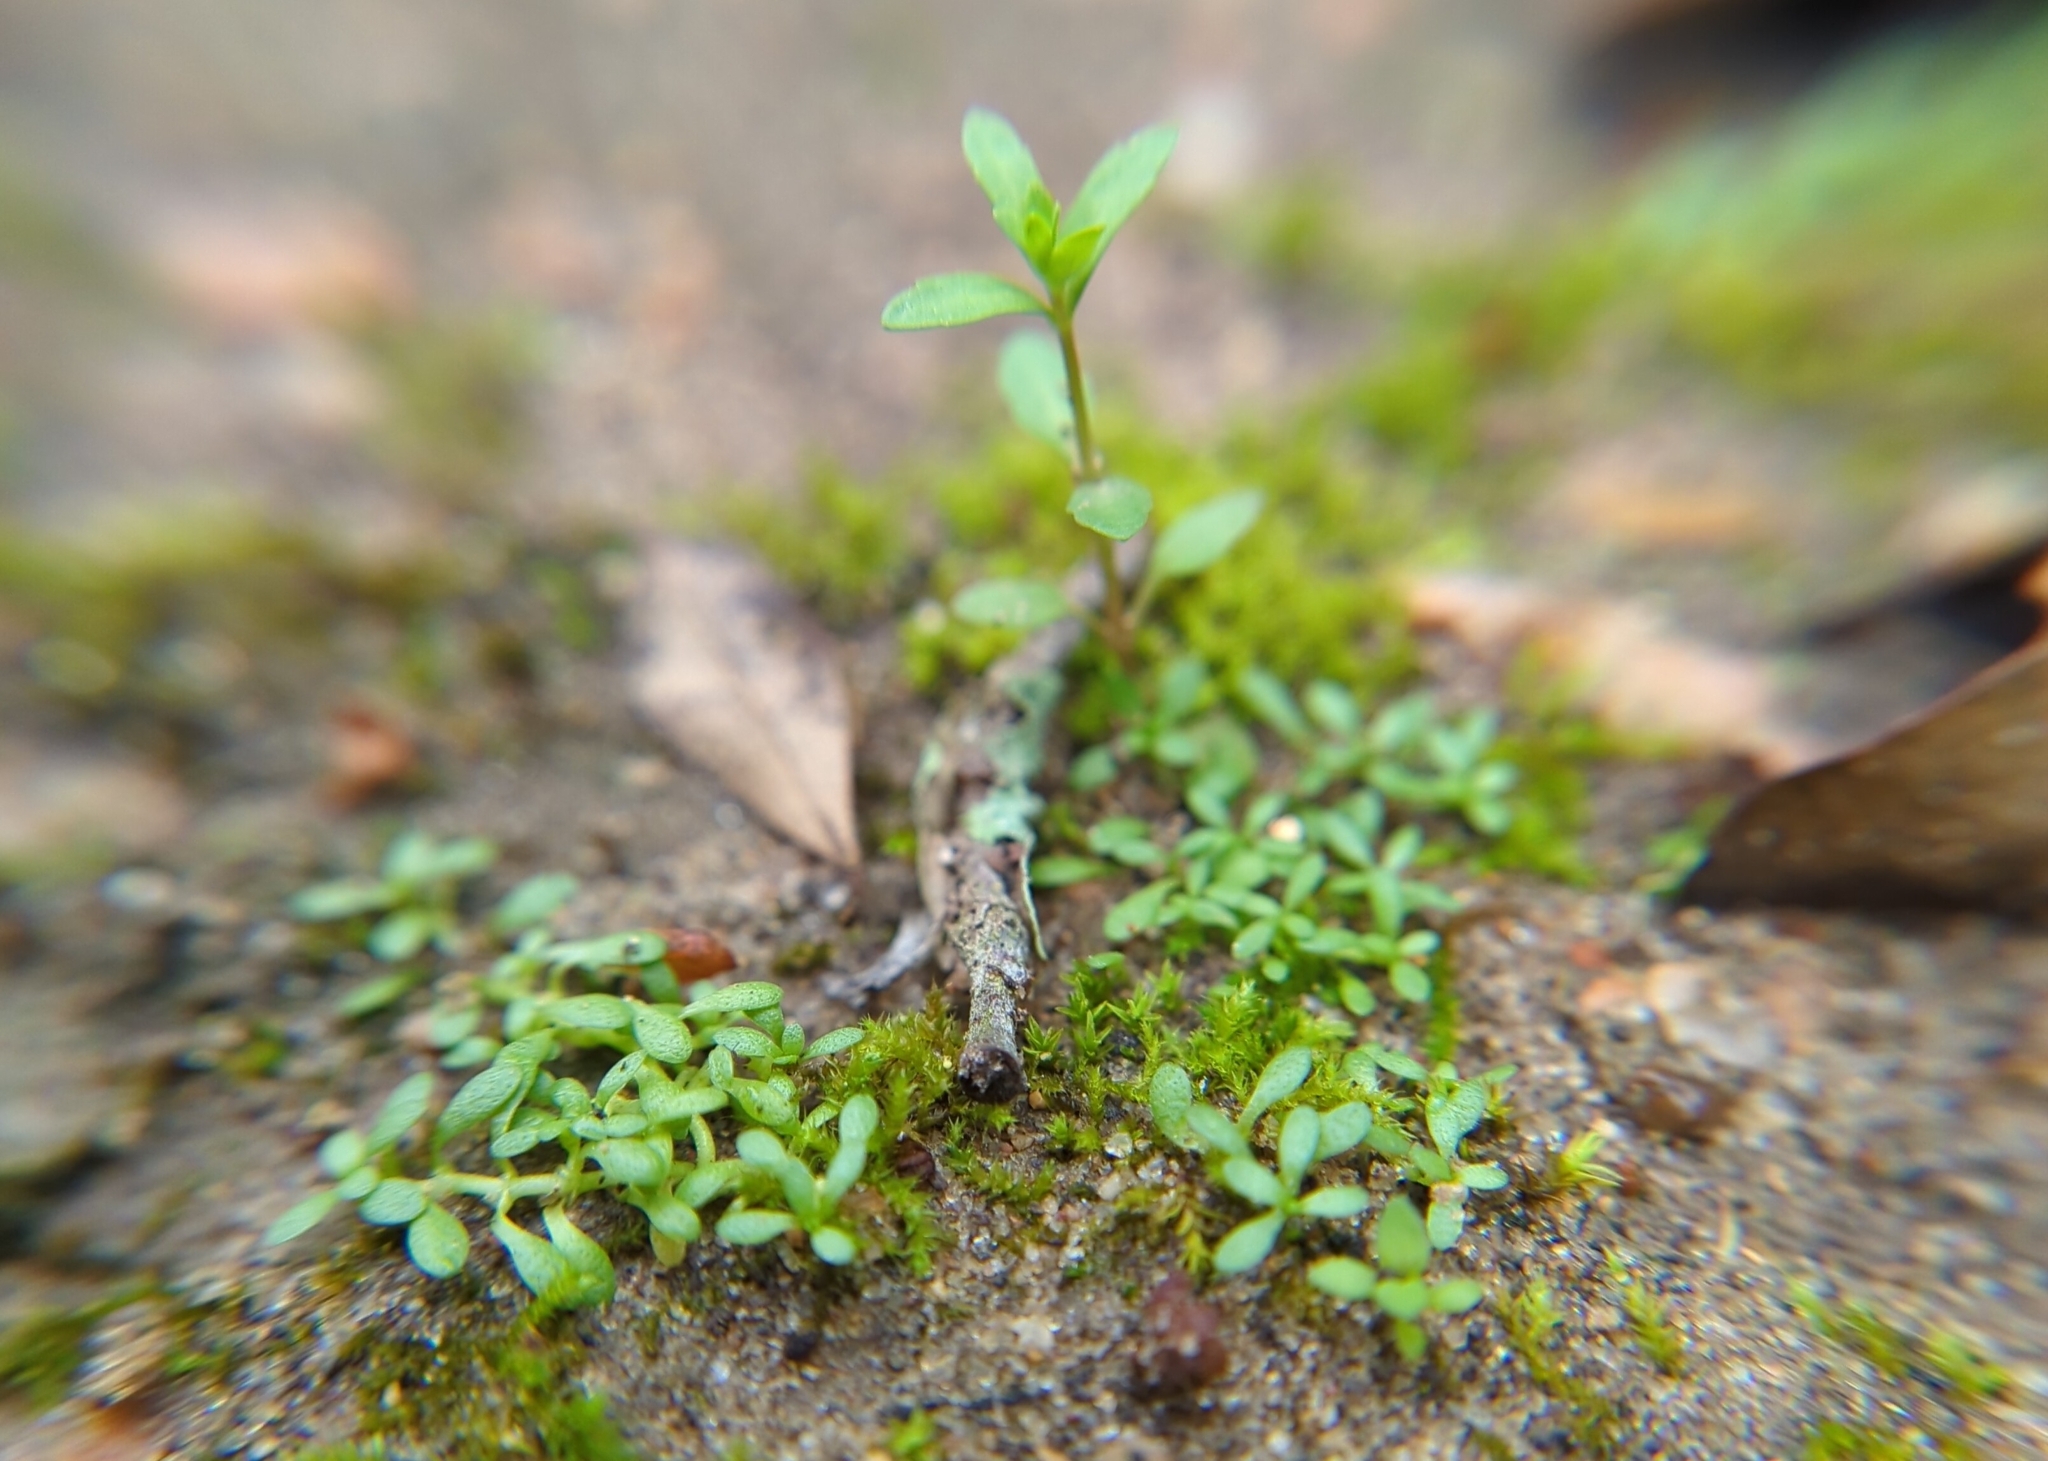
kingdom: Plantae
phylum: Tracheophyta
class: Magnoliopsida
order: Lamiales
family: Plantaginaceae
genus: Veronica
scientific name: Veronica peregrina
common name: Neckweed
